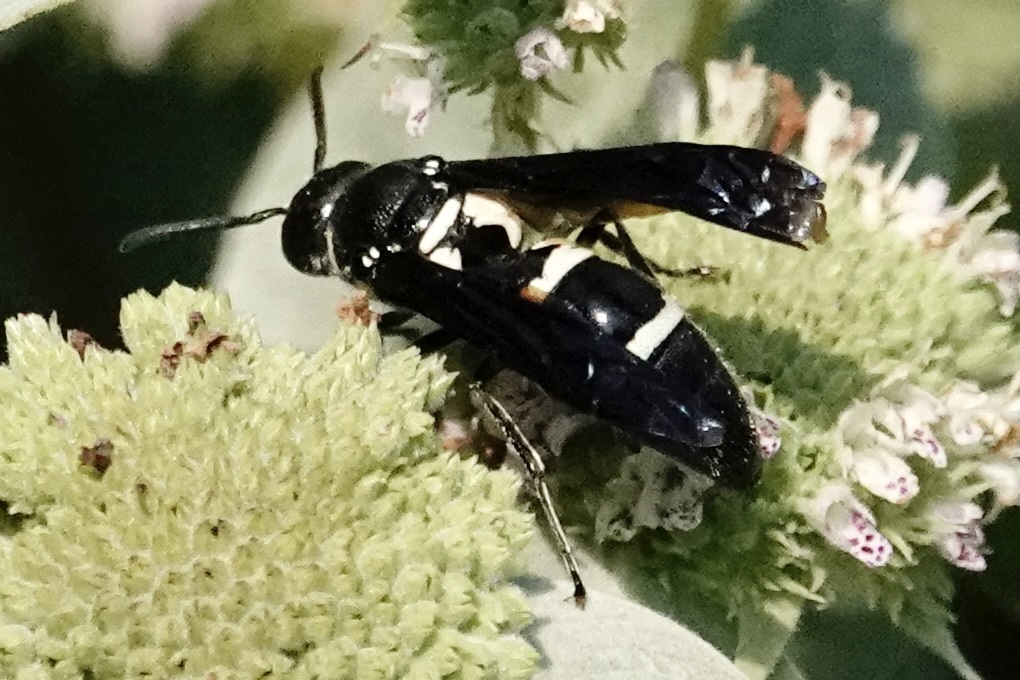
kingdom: Animalia
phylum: Arthropoda
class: Insecta
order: Hymenoptera
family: Eumenidae
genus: Pseudodynerus
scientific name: Pseudodynerus quadrisectus
